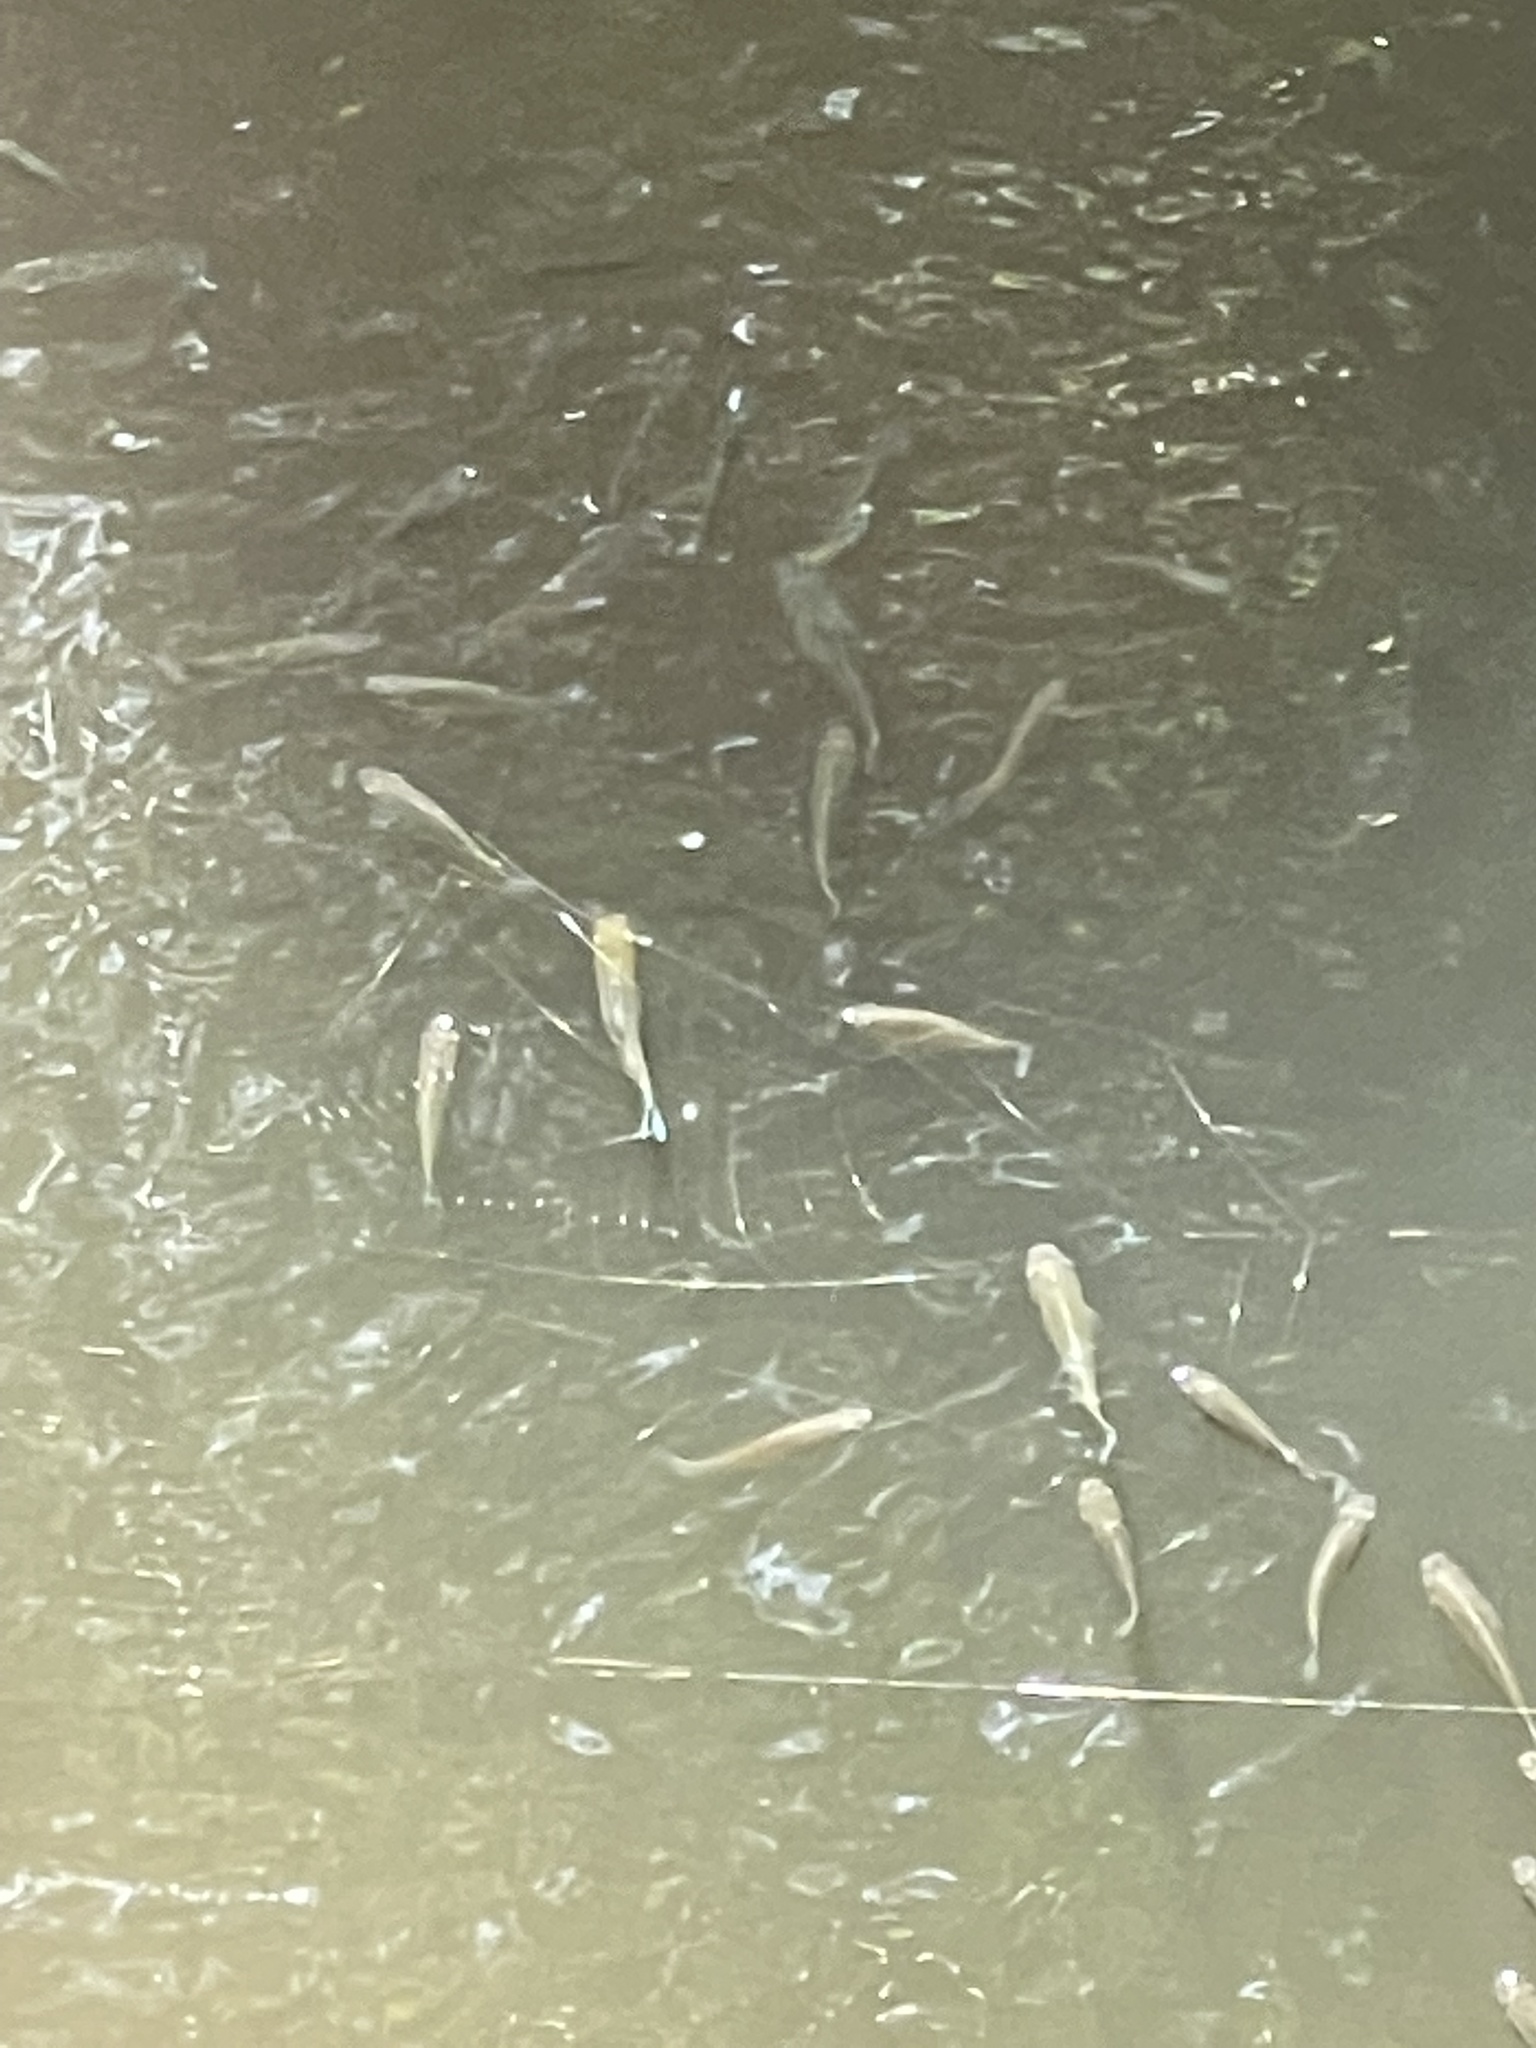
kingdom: Animalia
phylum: Chordata
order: Cyprinodontiformes
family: Poeciliidae
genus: Poecilia
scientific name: Poecilia latipinna
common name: Sailfin molly
